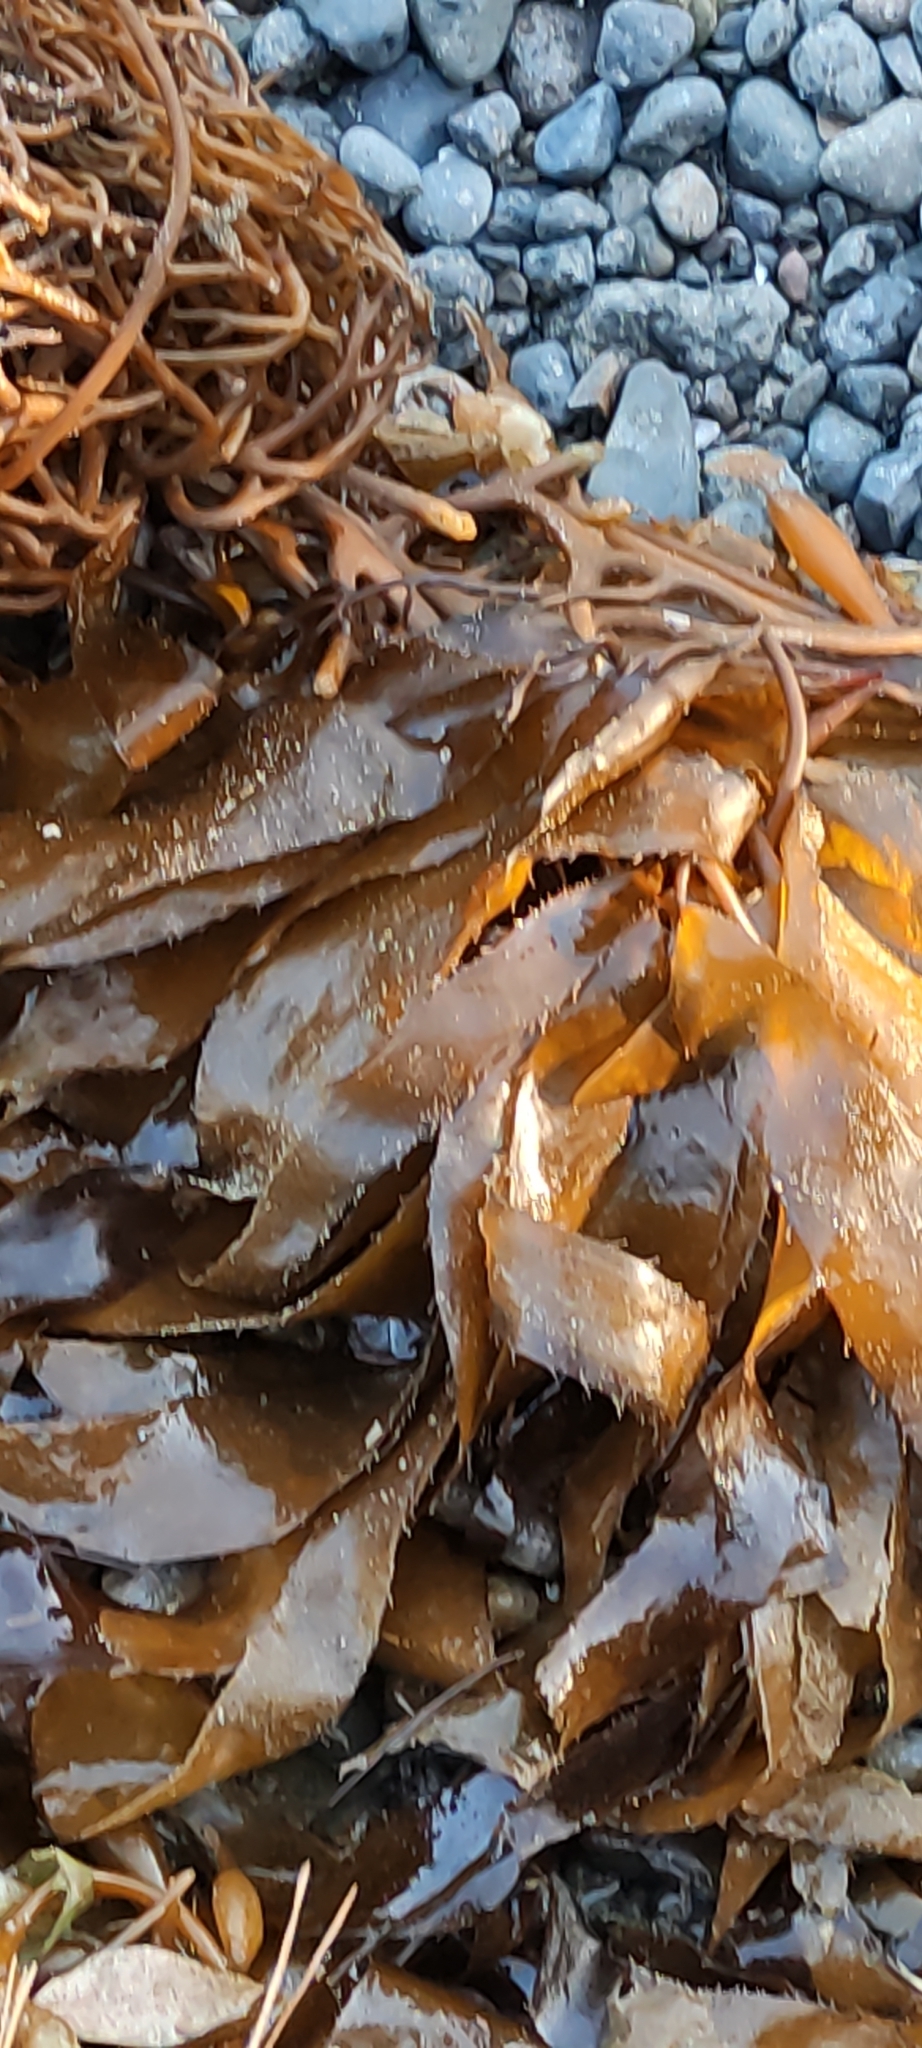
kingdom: Chromista
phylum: Ochrophyta
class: Phaeophyceae
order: Laminariales
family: Laminariaceae
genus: Macrocystis
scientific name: Macrocystis pyrifera
